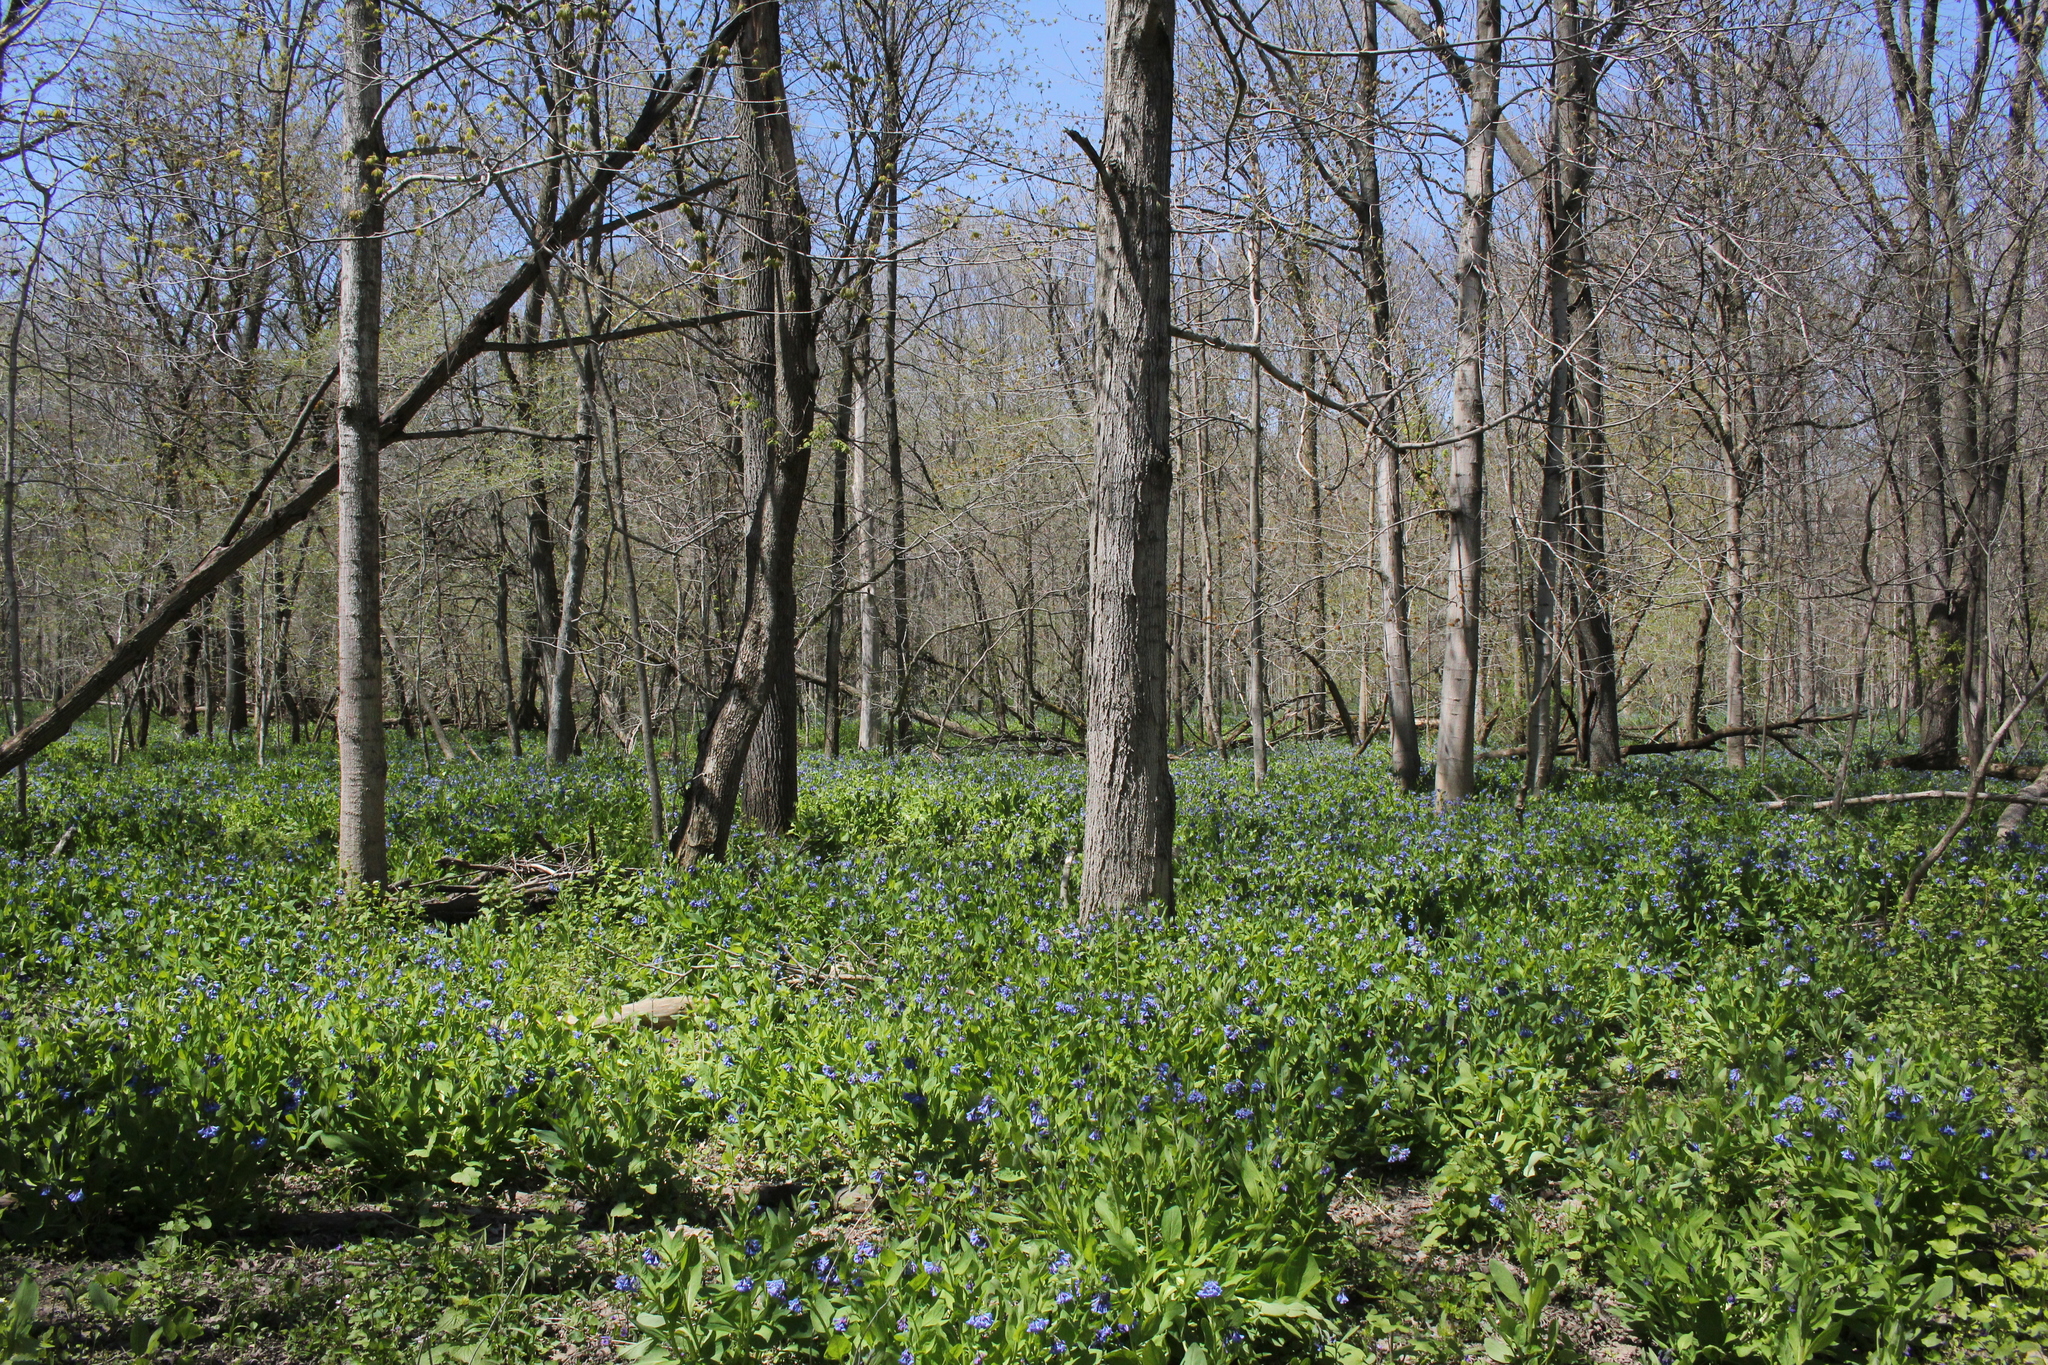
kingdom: Plantae
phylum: Tracheophyta
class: Magnoliopsida
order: Boraginales
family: Boraginaceae
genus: Mertensia
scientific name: Mertensia virginica
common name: Virginia bluebells
